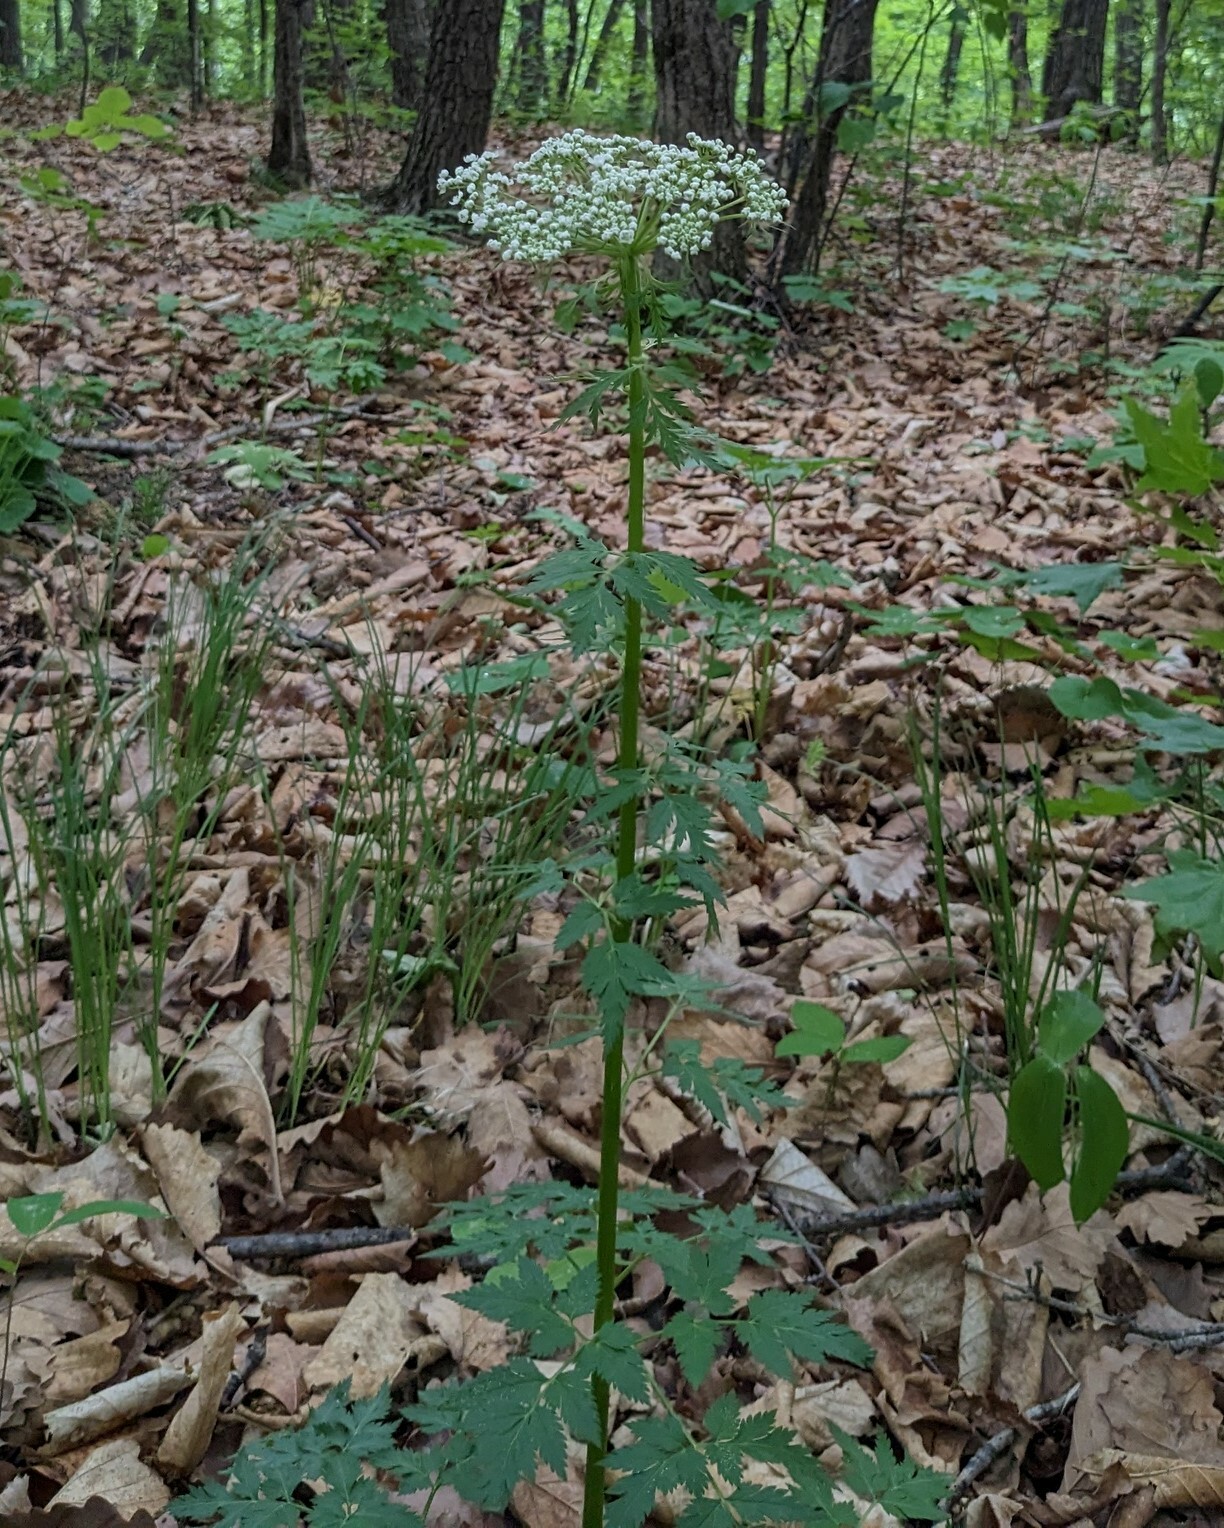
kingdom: Plantae
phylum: Tracheophyta
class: Magnoliopsida
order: Apiales
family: Apiaceae
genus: Pleurospermum
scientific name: Pleurospermum uralense
